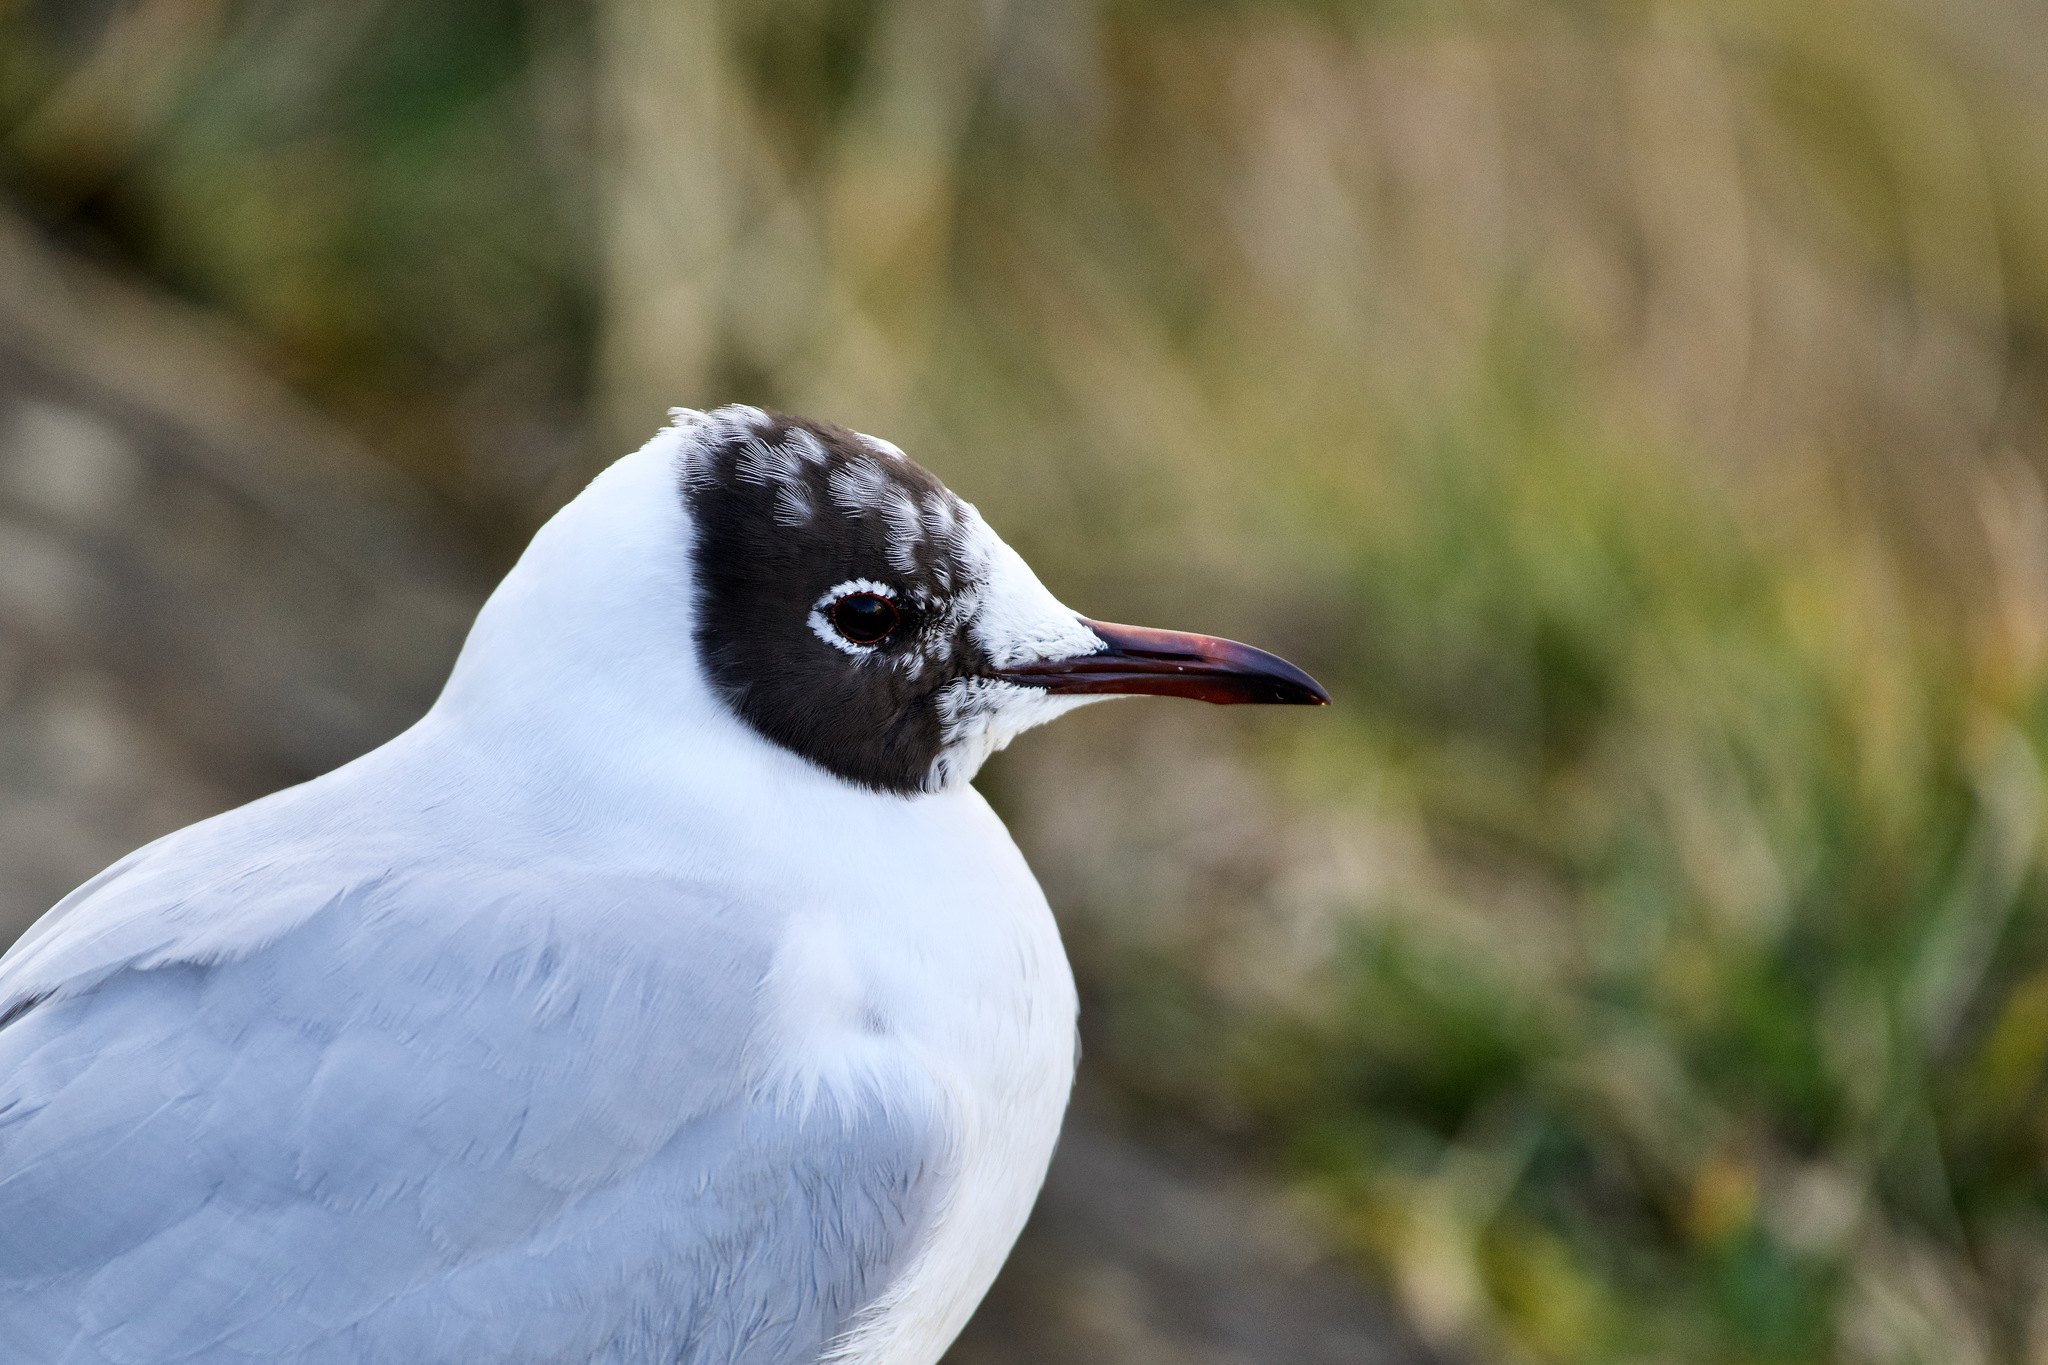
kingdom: Animalia
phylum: Chordata
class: Aves
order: Charadriiformes
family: Laridae
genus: Chroicocephalus
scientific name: Chroicocephalus ridibundus
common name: Black-headed gull
